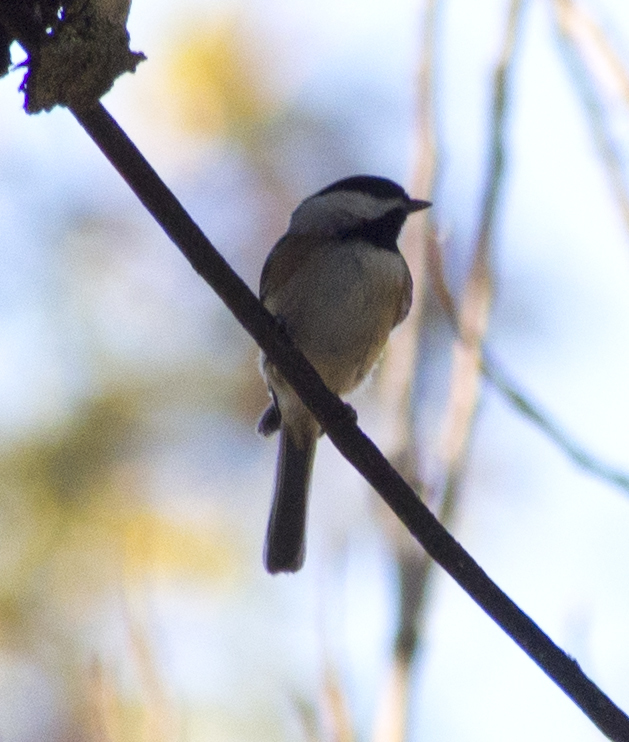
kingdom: Animalia
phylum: Chordata
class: Aves
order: Passeriformes
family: Paridae
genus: Poecile
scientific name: Poecile carolinensis
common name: Carolina chickadee
